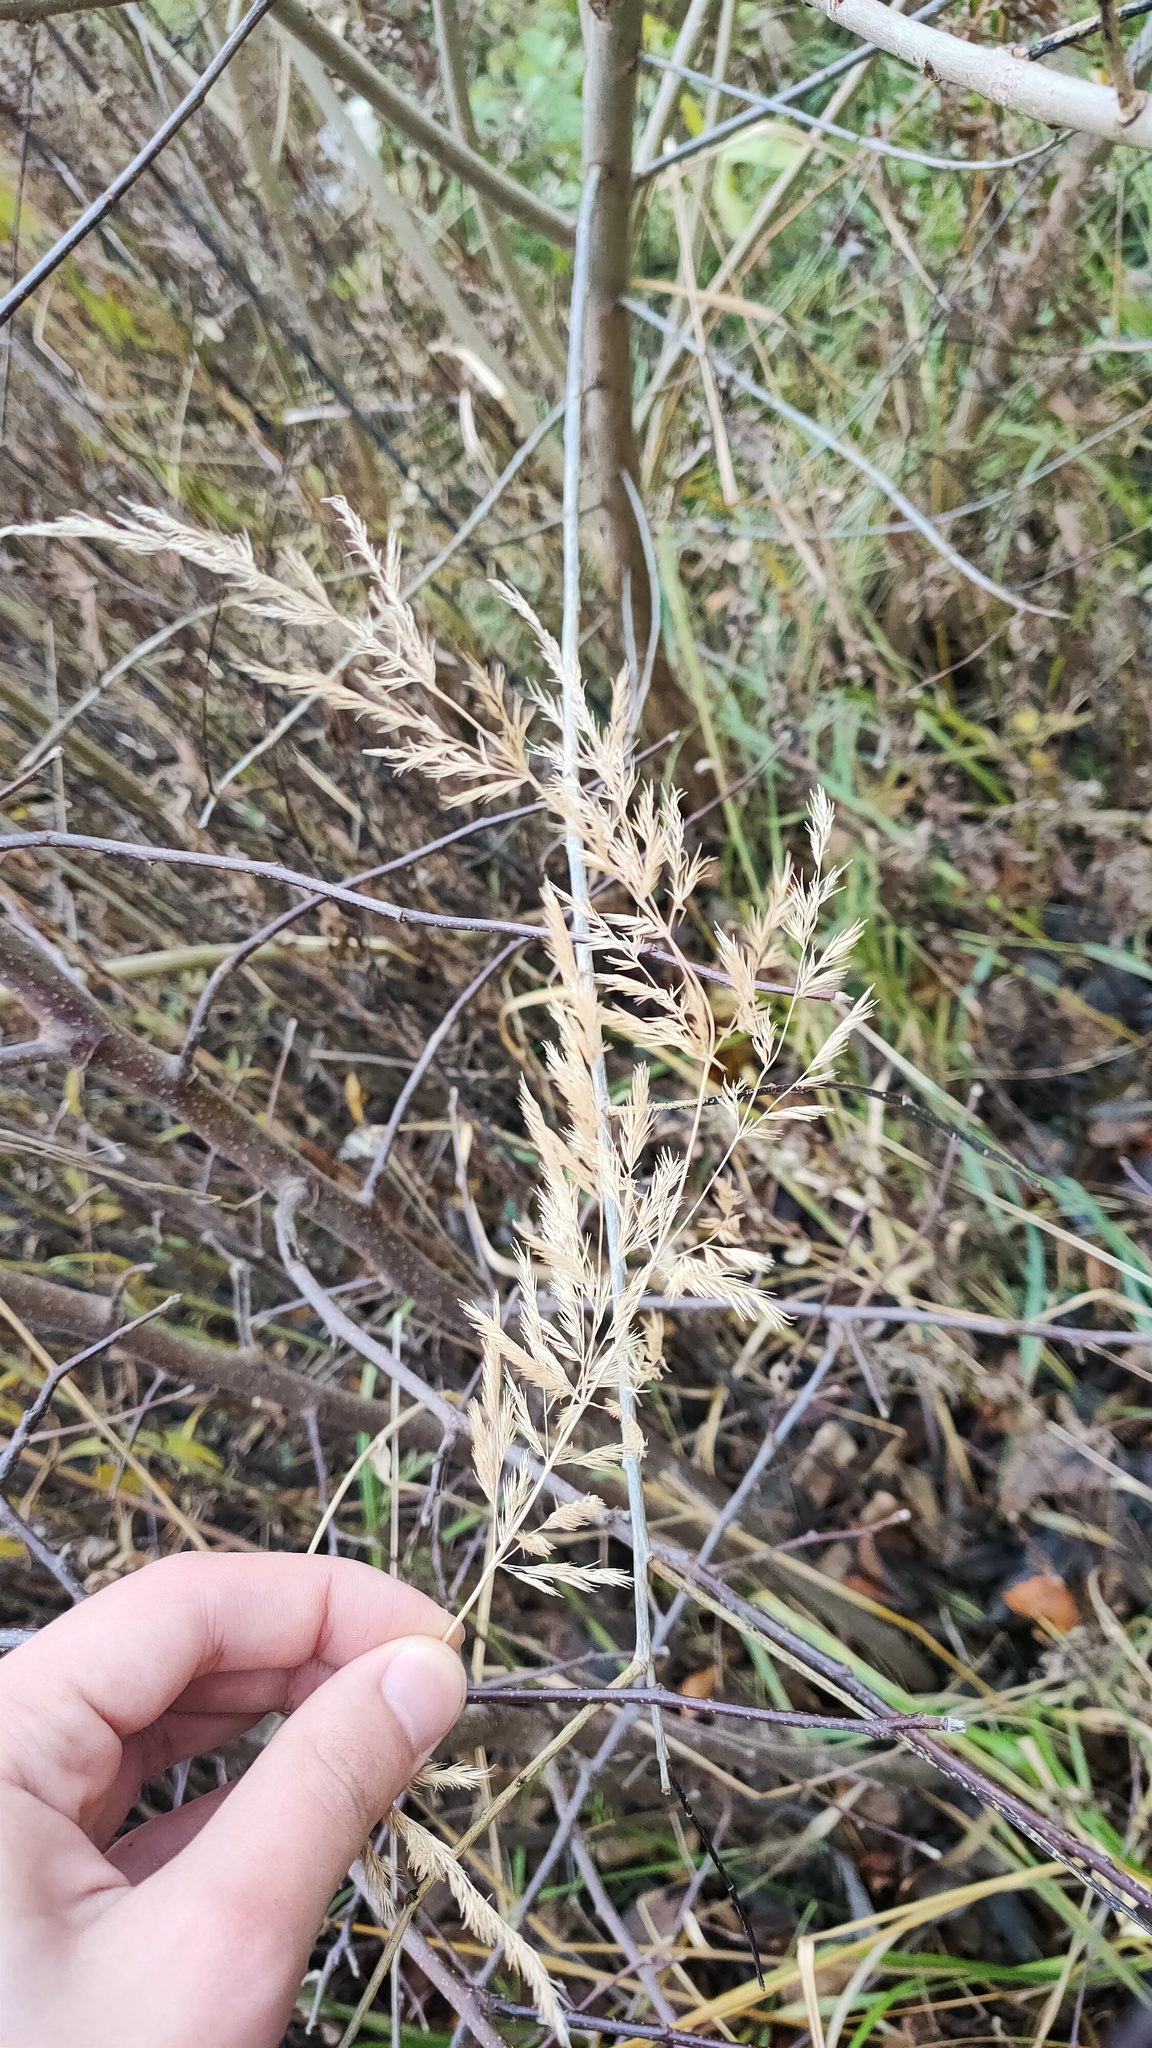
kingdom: Plantae
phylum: Tracheophyta
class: Liliopsida
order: Poales
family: Poaceae
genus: Calamagrostis
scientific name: Calamagrostis epigejos
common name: Wood small-reed
